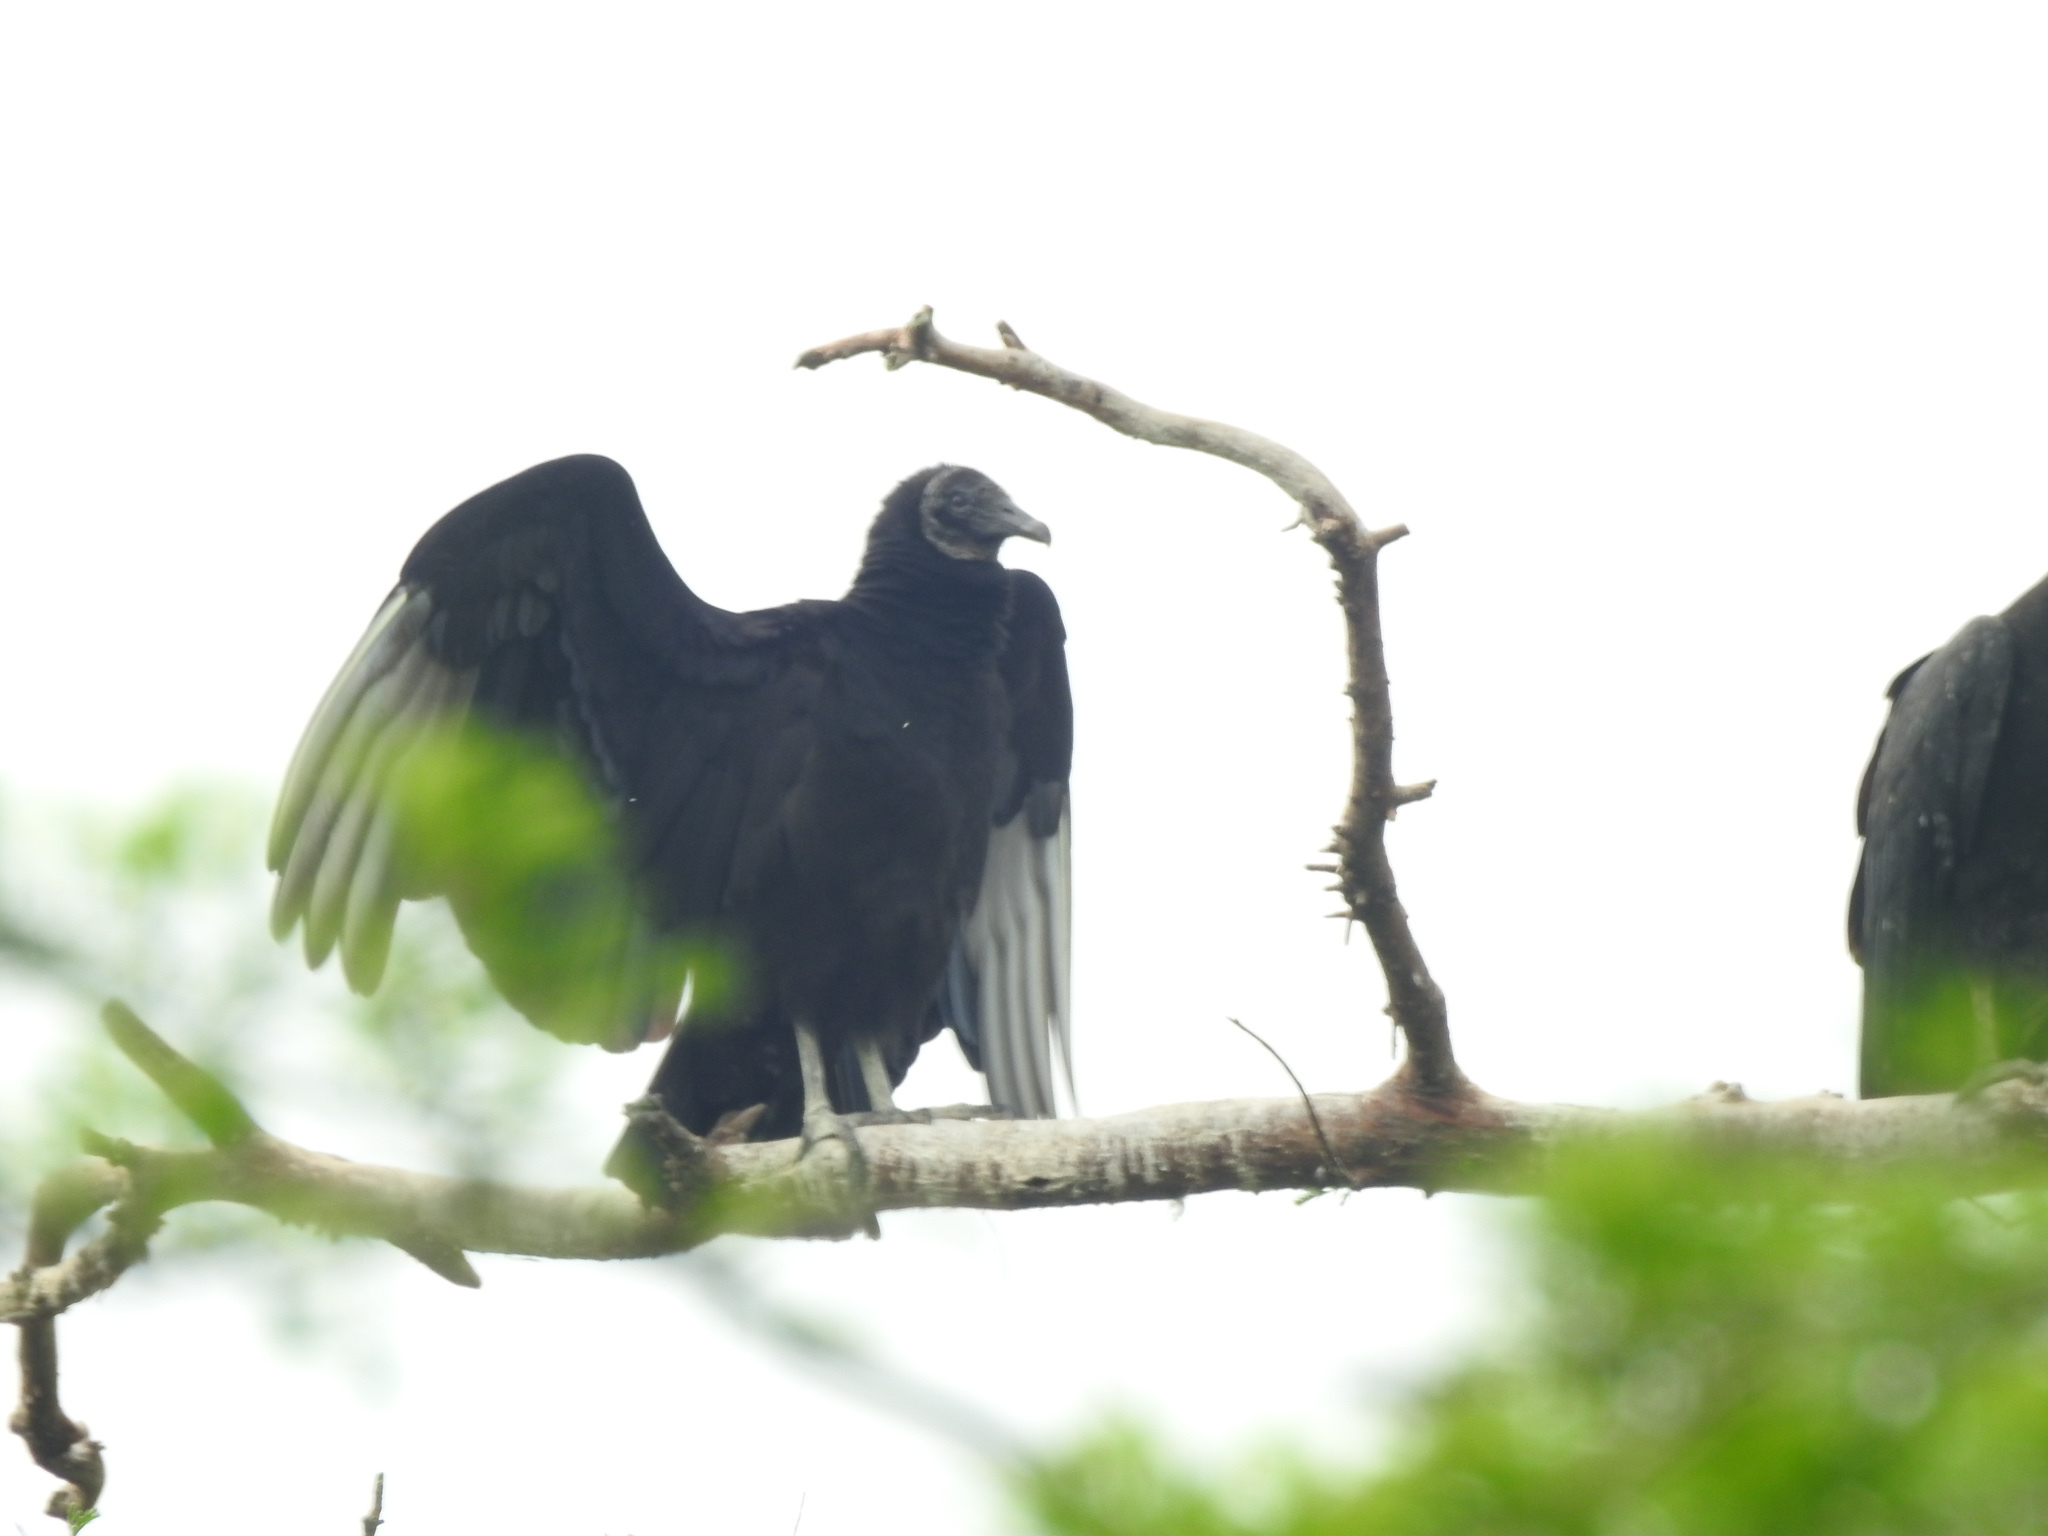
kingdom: Animalia
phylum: Chordata
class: Aves
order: Accipitriformes
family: Cathartidae
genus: Coragyps
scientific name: Coragyps atratus
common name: Black vulture
